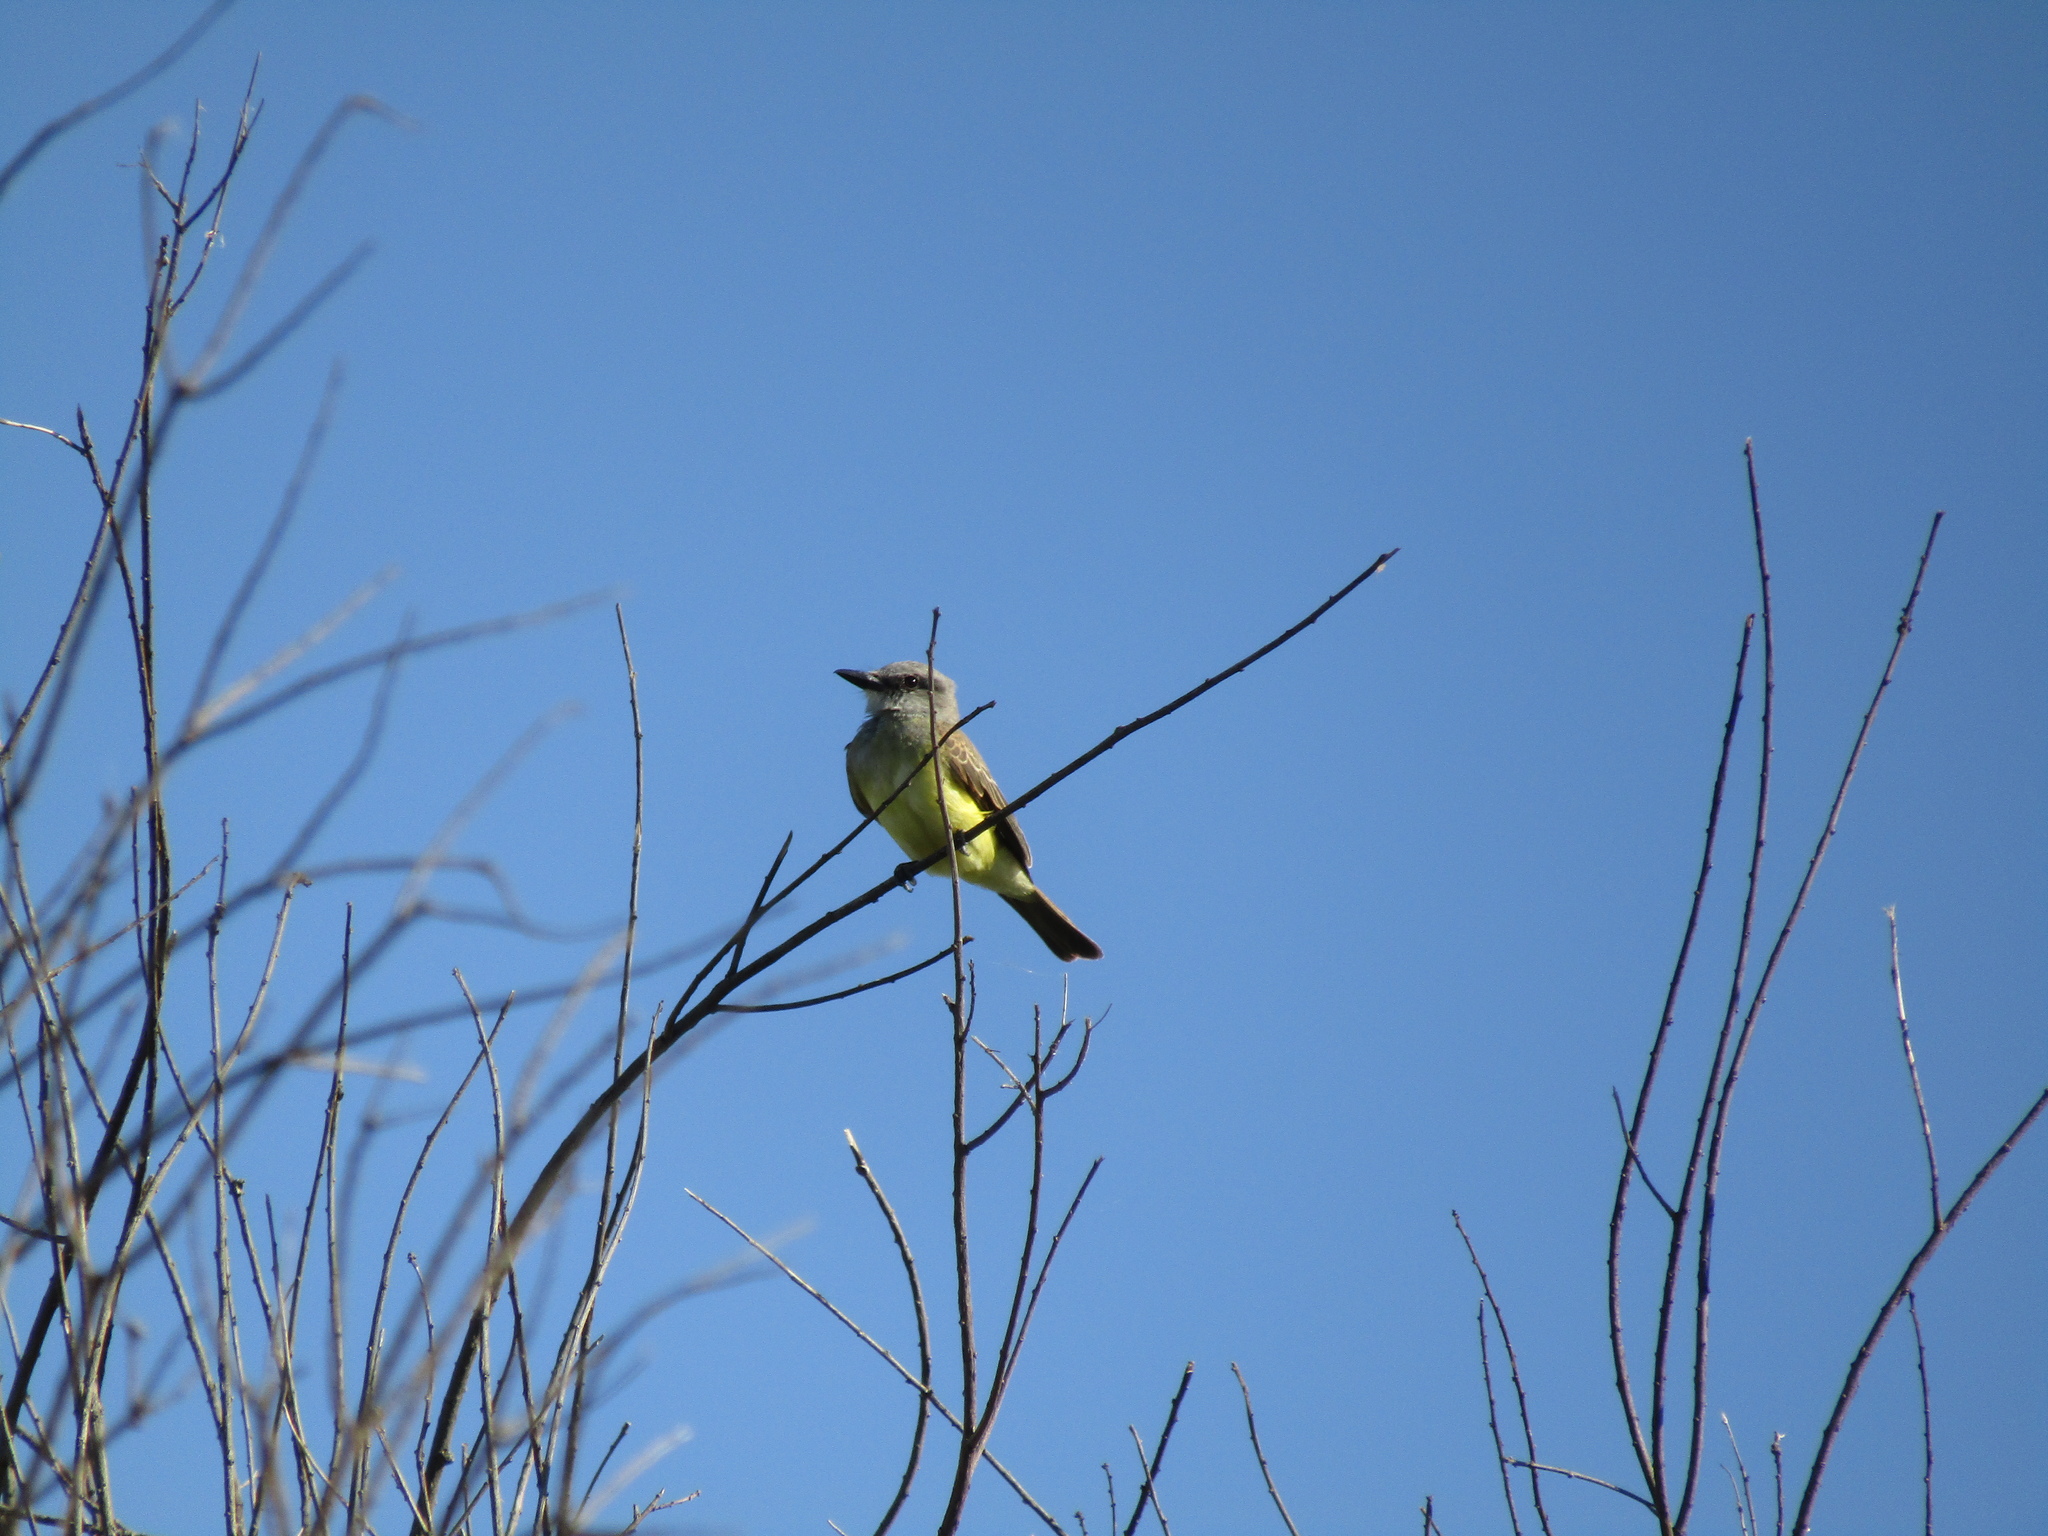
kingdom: Animalia
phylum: Chordata
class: Aves
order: Passeriformes
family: Tyrannidae
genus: Tyrannus
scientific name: Tyrannus melancholicus
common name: Tropical kingbird
